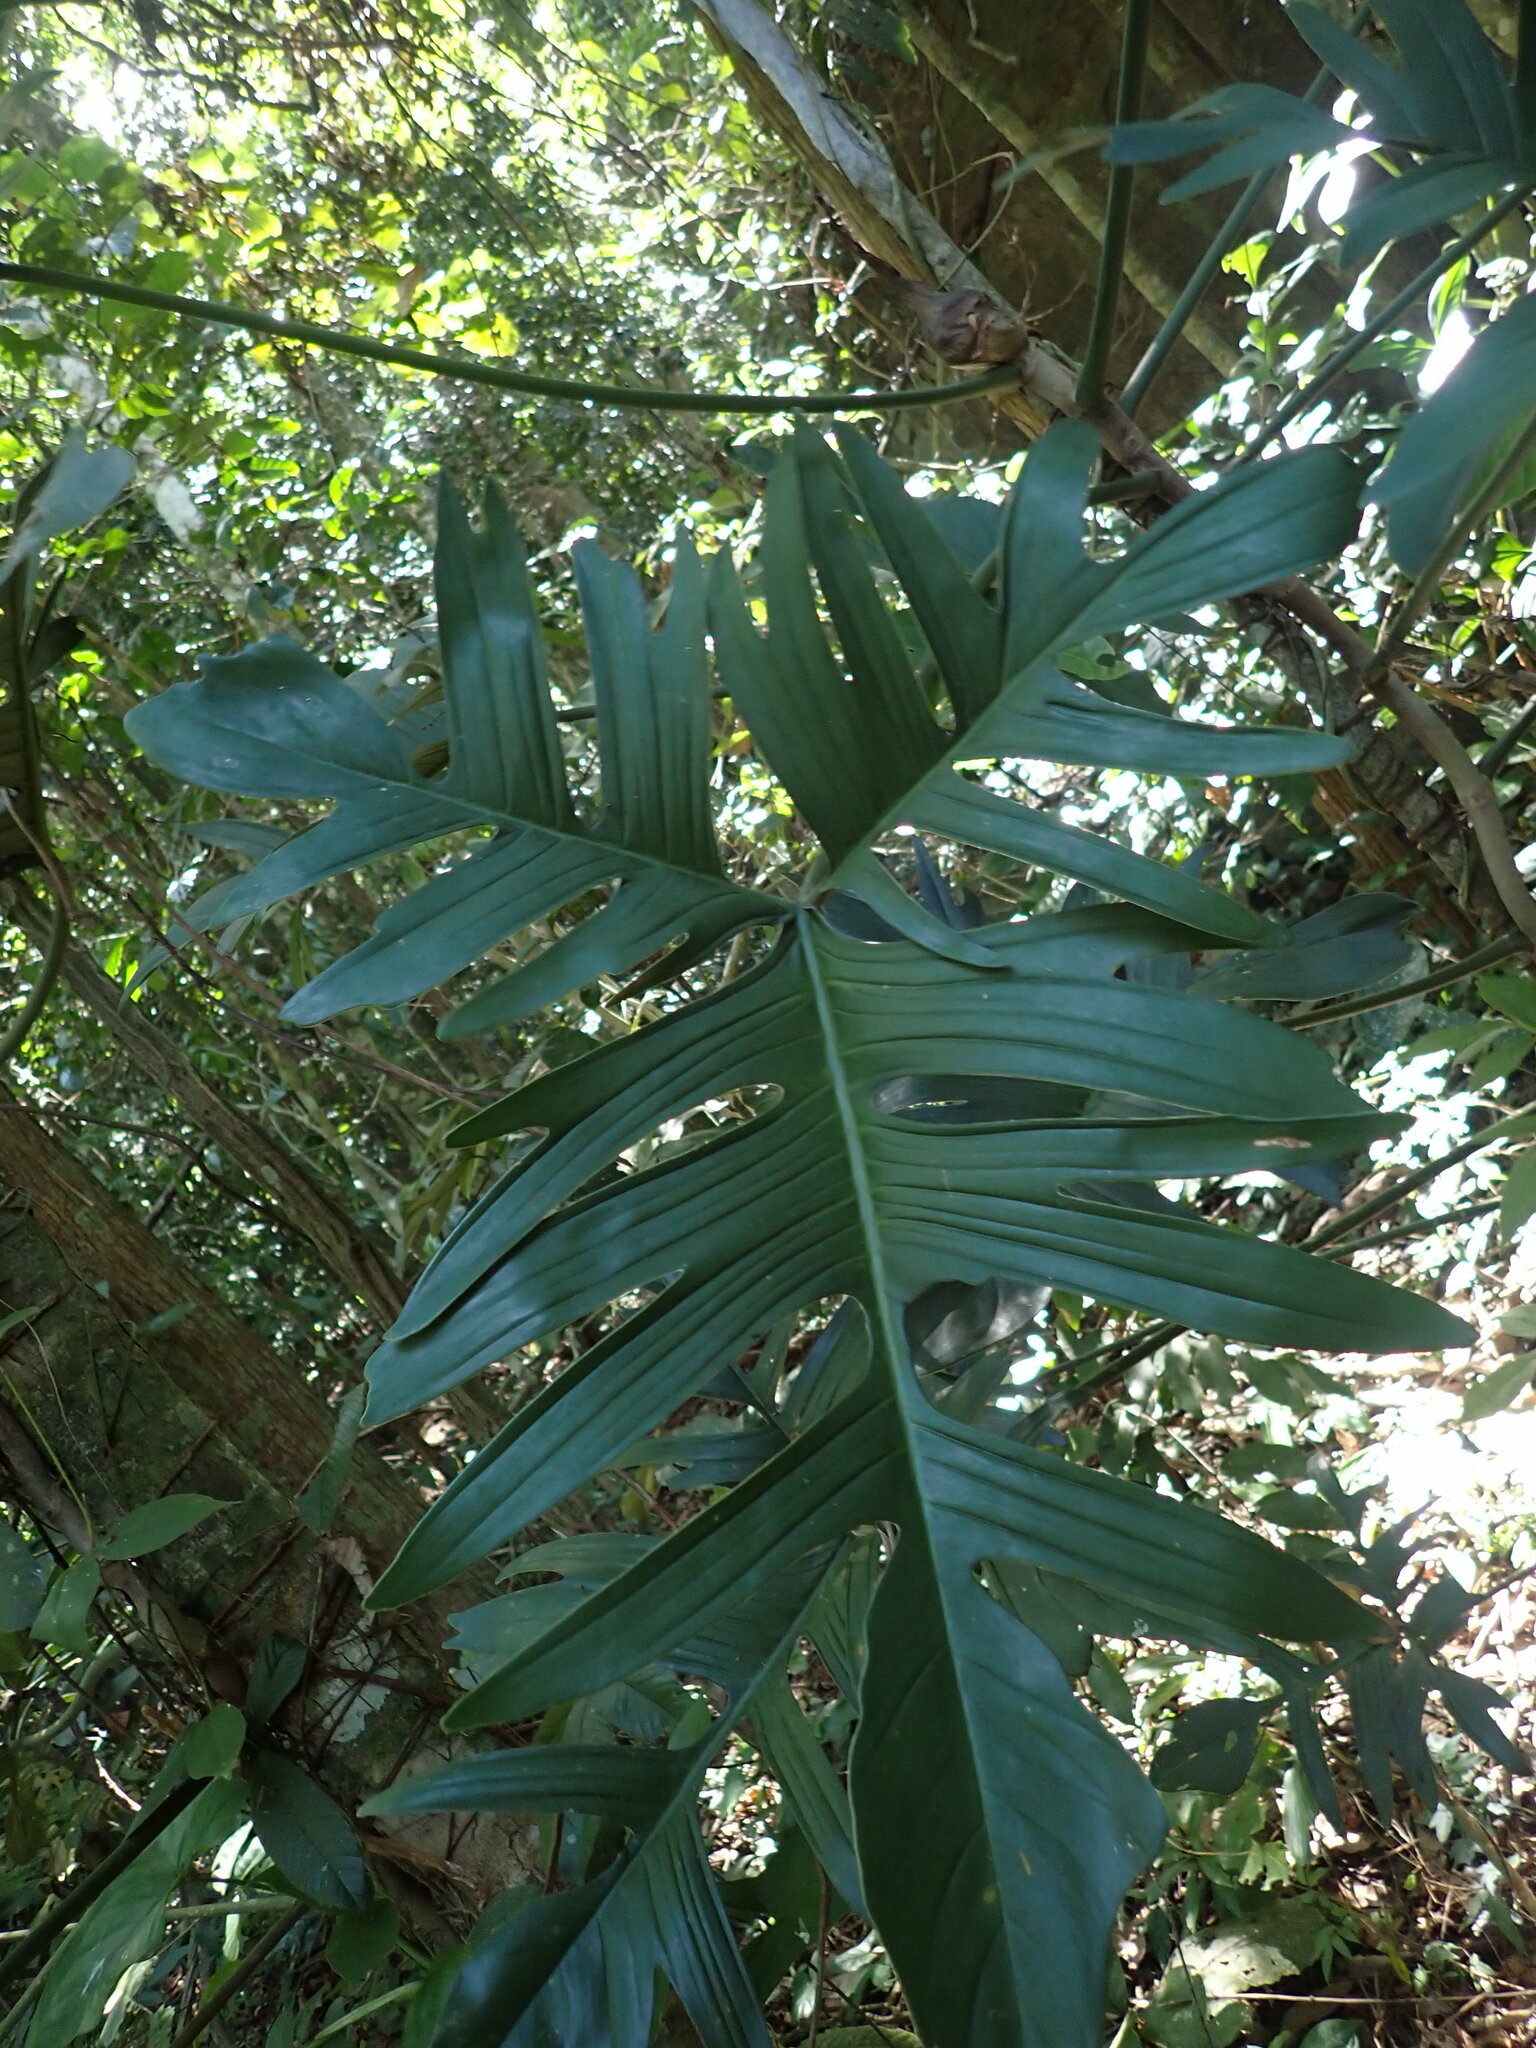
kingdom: Plantae
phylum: Tracheophyta
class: Liliopsida
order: Alismatales
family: Araceae
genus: Philodendron
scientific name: Philodendron pedatum
